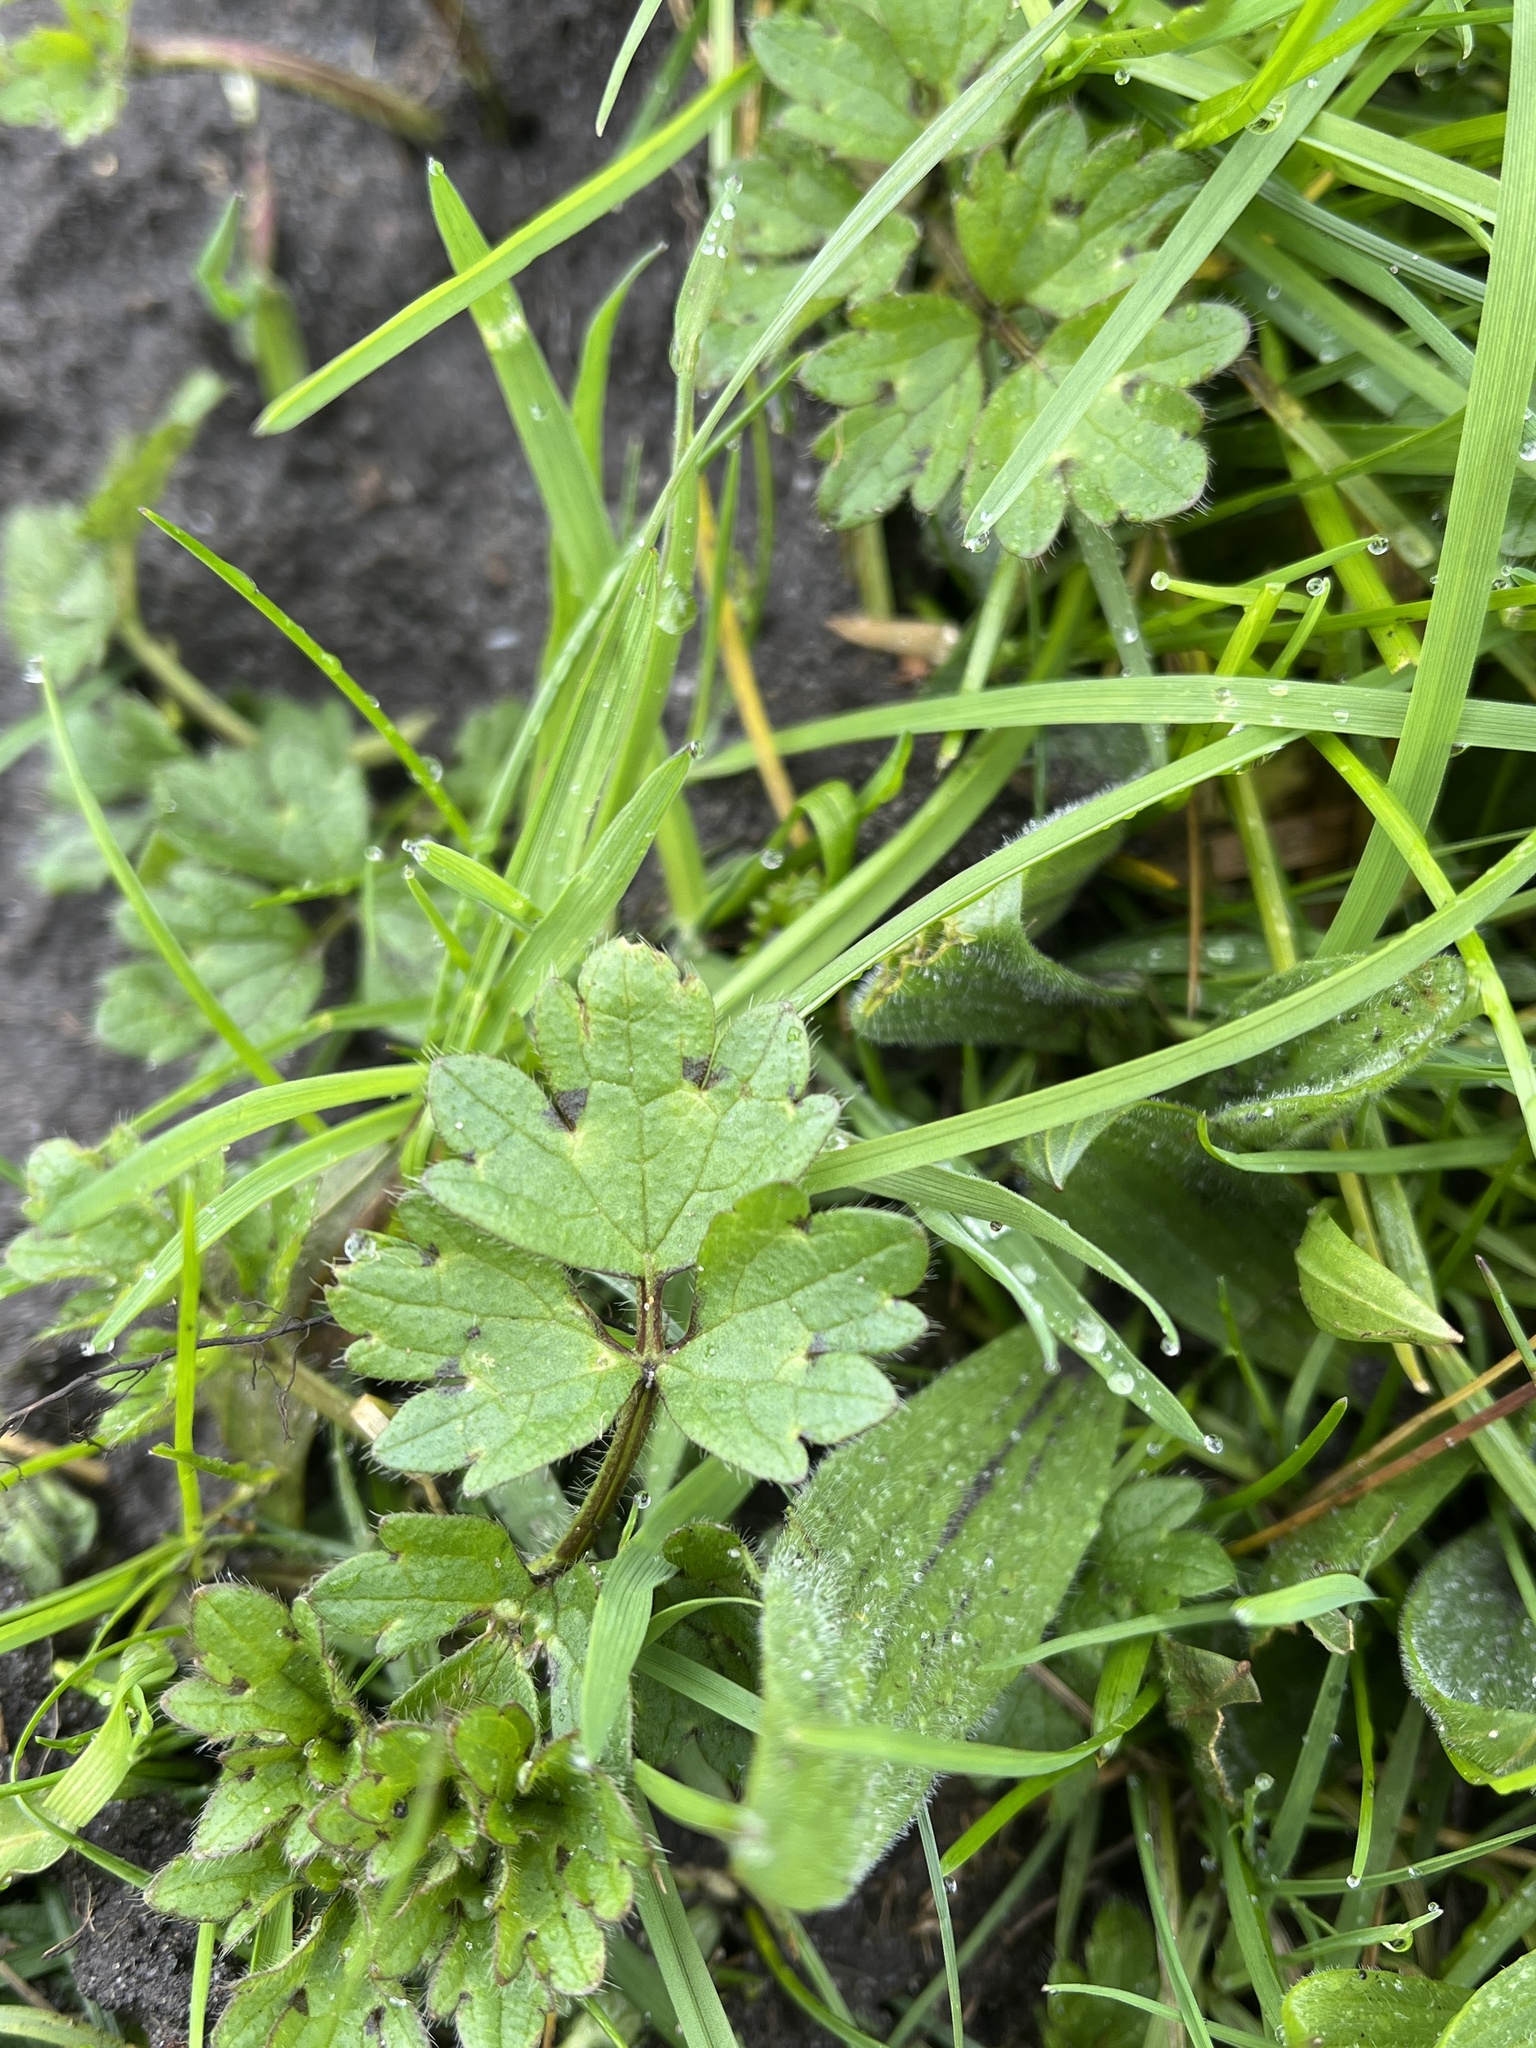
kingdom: Plantae
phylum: Tracheophyta
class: Magnoliopsida
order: Ranunculales
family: Ranunculaceae
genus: Ranunculus
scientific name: Ranunculus repens
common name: Creeping buttercup
